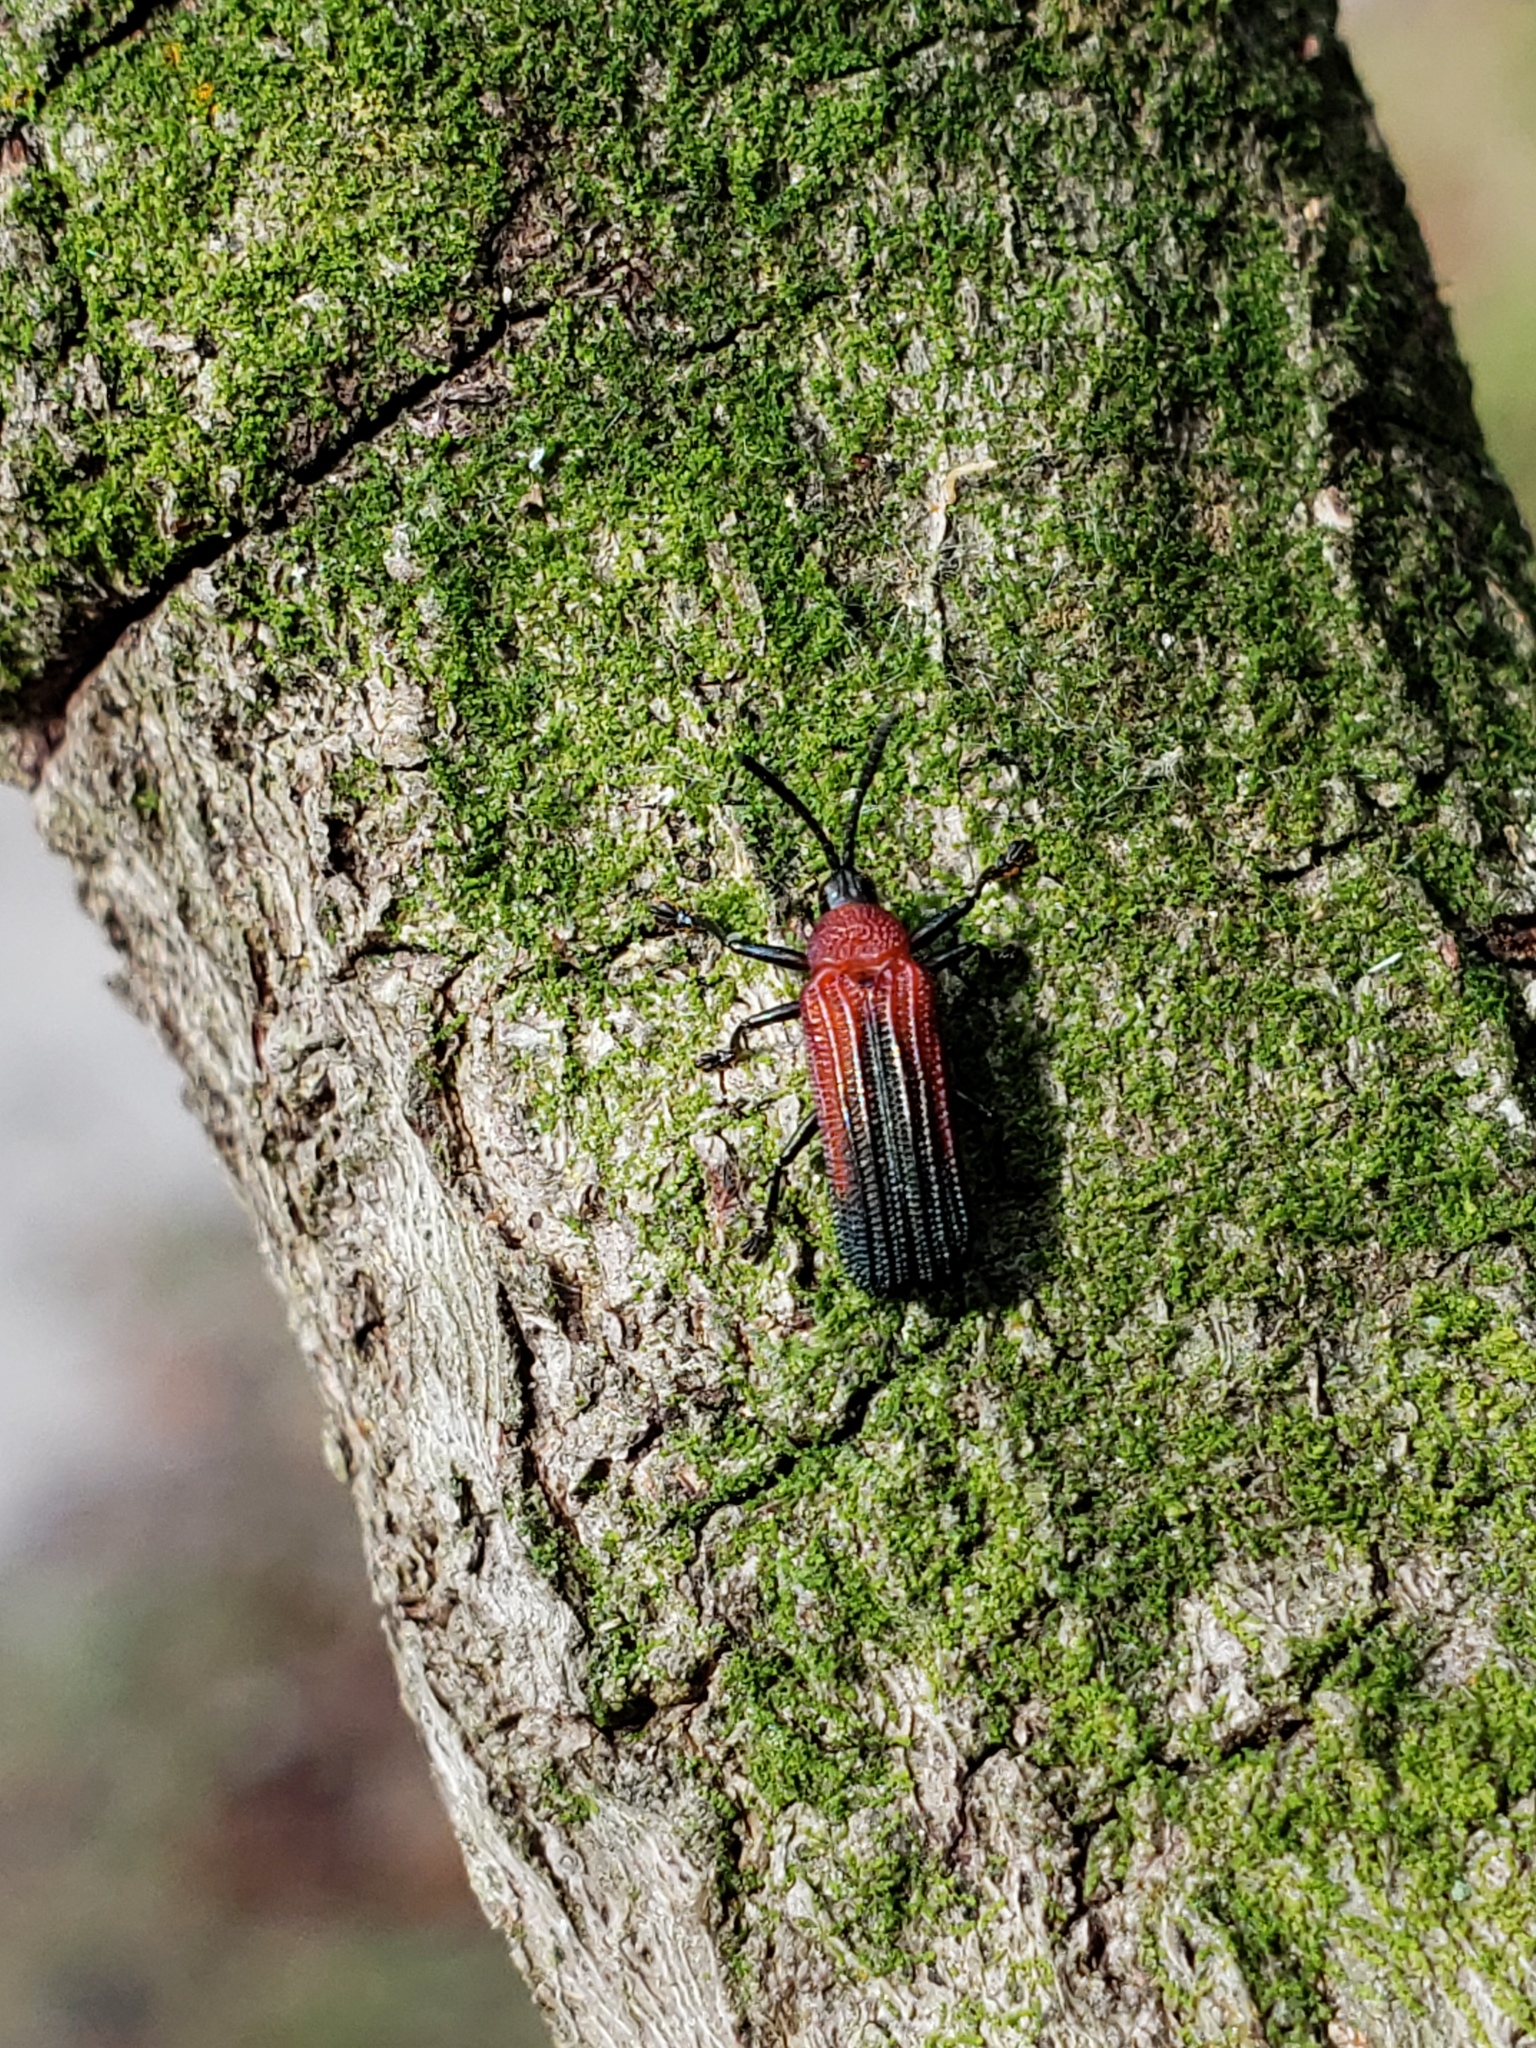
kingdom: Animalia
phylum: Arthropoda
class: Insecta
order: Coleoptera
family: Chrysomelidae
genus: Chalepus
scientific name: Chalepus sanguinicollis
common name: Red-shouldered leaf beetle
